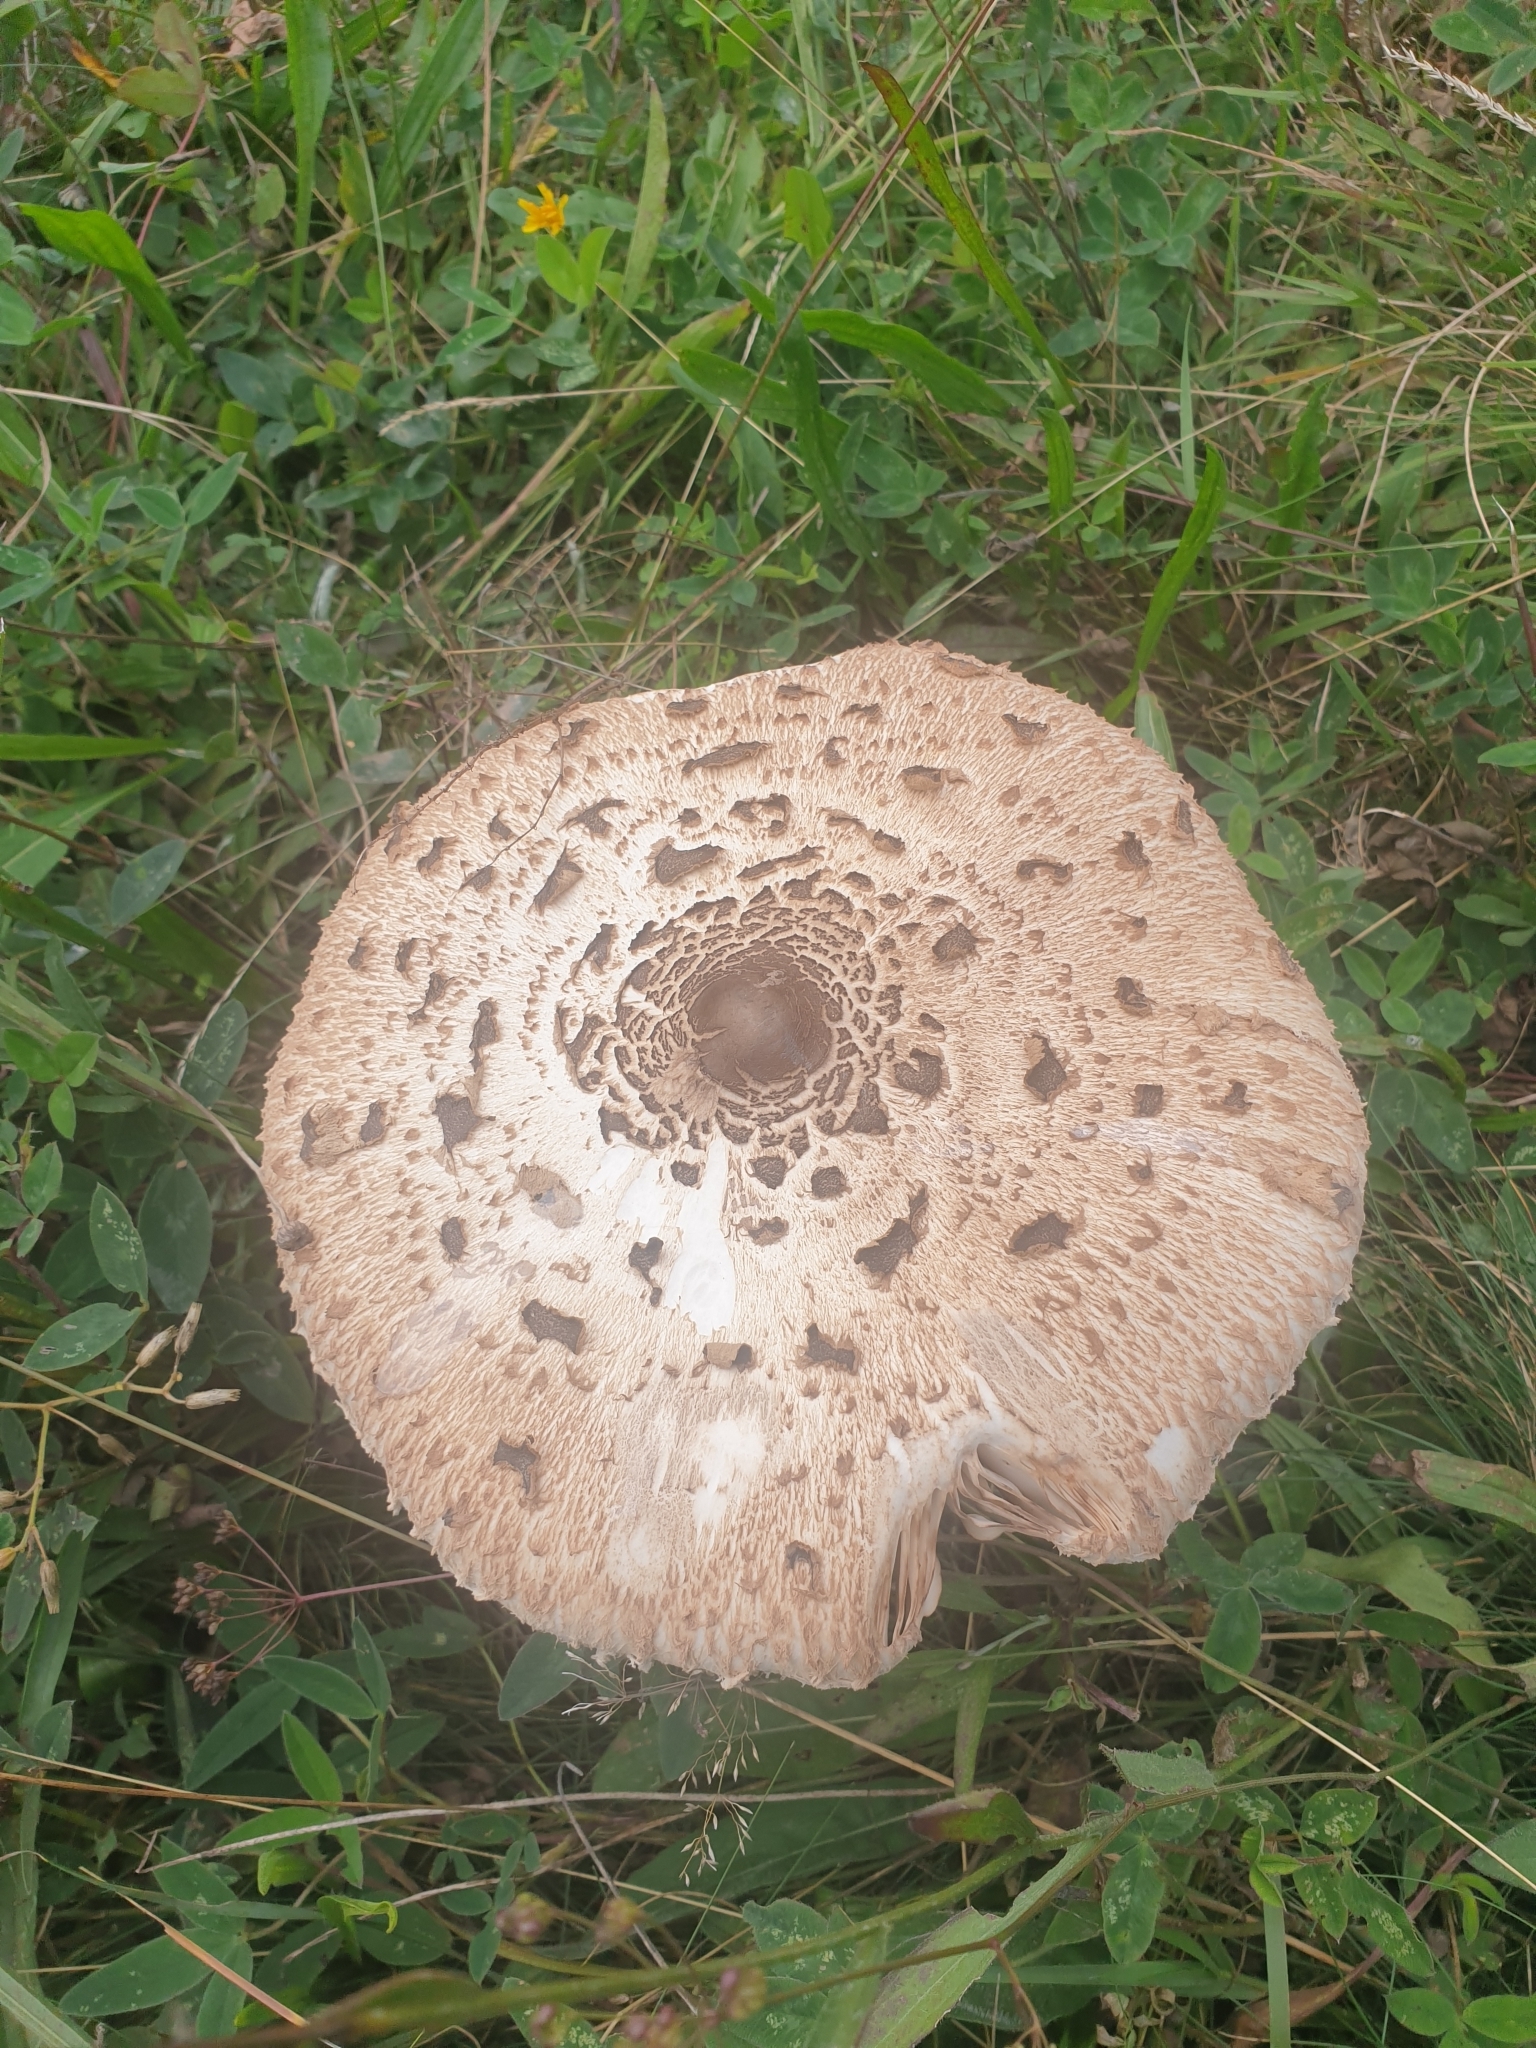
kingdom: Fungi
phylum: Basidiomycota
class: Agaricomycetes
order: Agaricales
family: Agaricaceae
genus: Macrolepiota
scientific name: Macrolepiota procera
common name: Parasol
